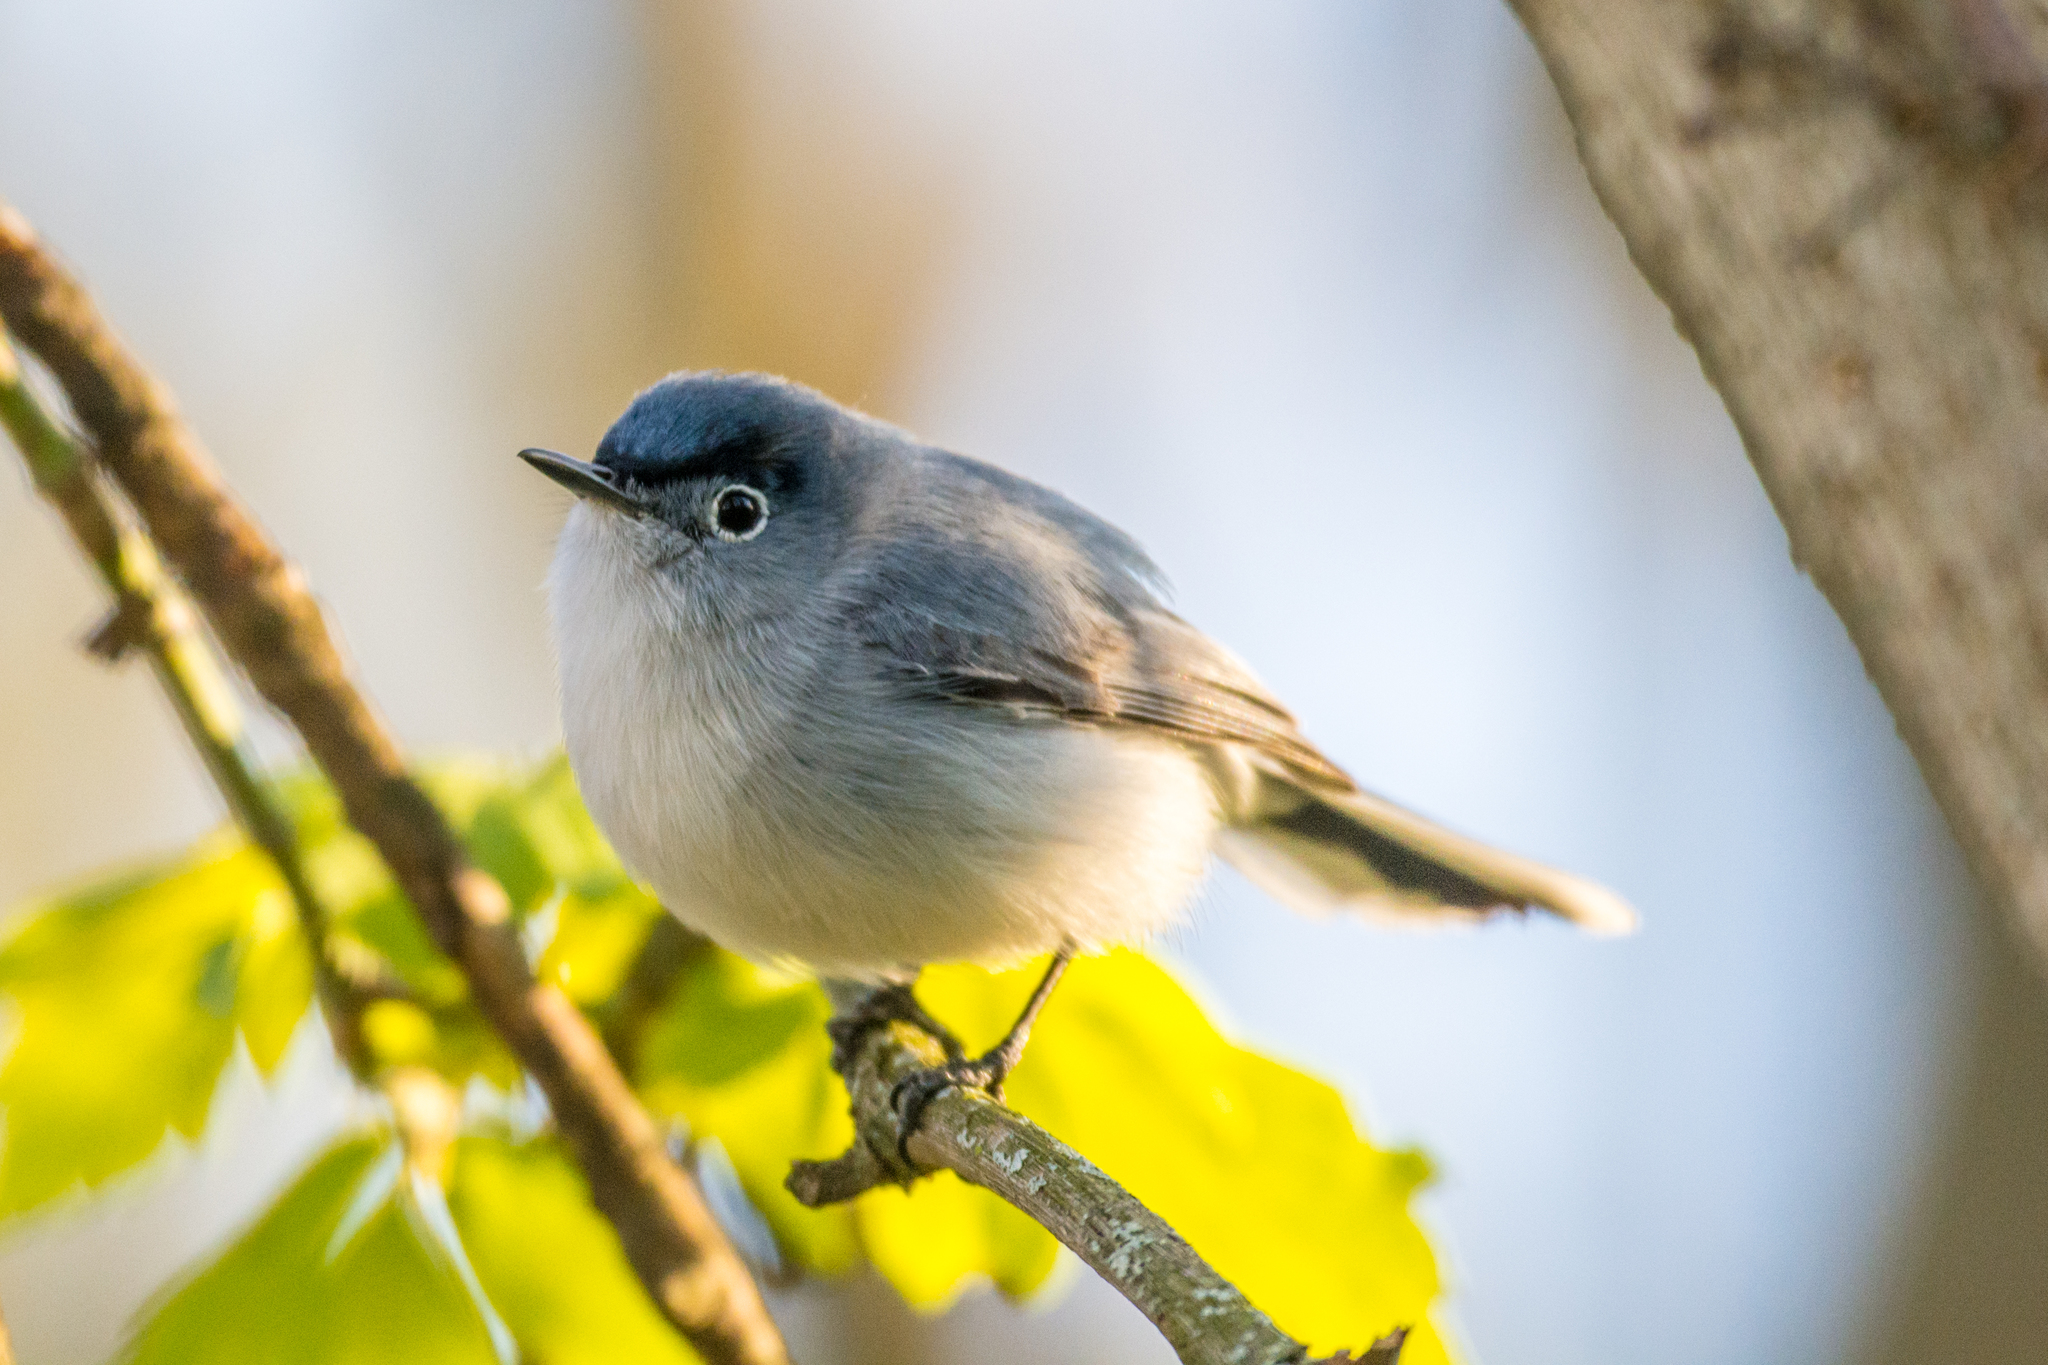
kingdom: Animalia
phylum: Chordata
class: Aves
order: Passeriformes
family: Polioptilidae
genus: Polioptila
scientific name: Polioptila caerulea
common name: Blue-gray gnatcatcher
